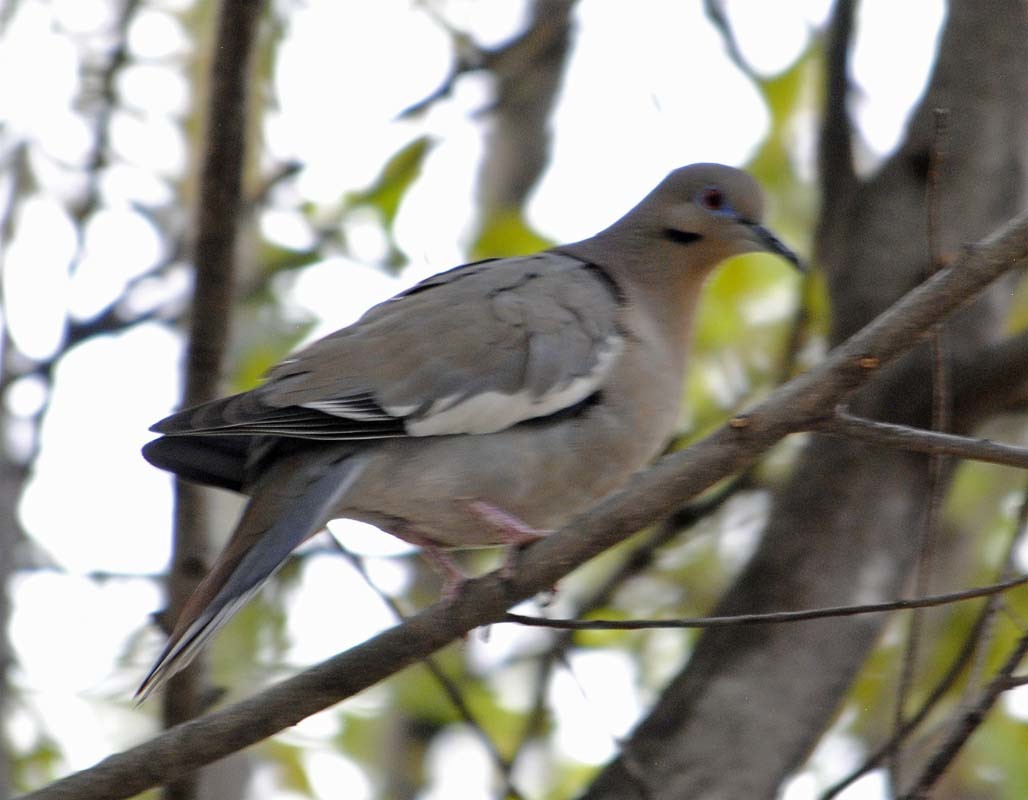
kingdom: Animalia
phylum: Chordata
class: Aves
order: Columbiformes
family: Columbidae
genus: Zenaida
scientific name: Zenaida asiatica
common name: White-winged dove
